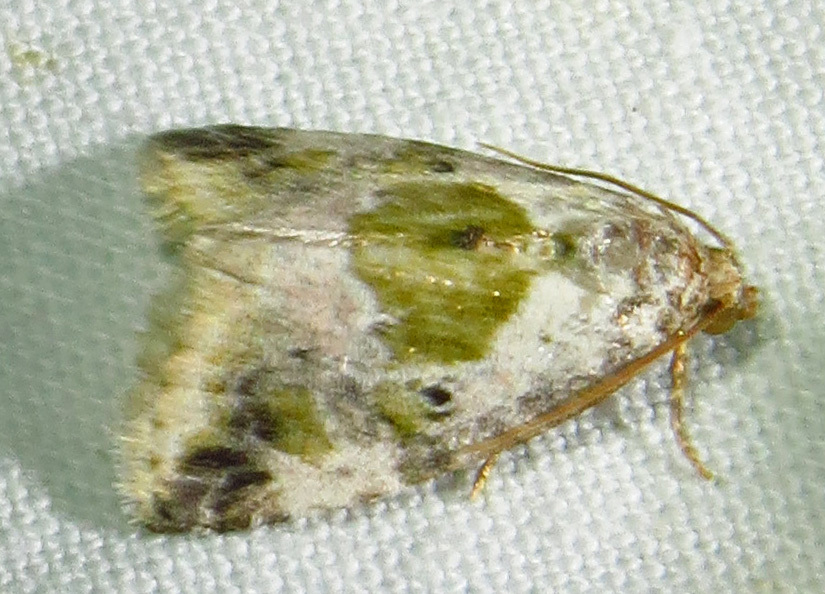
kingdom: Animalia
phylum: Arthropoda
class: Insecta
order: Lepidoptera
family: Noctuidae
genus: Maliattha
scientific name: Maliattha synochitis
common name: Black-dotted glyph
